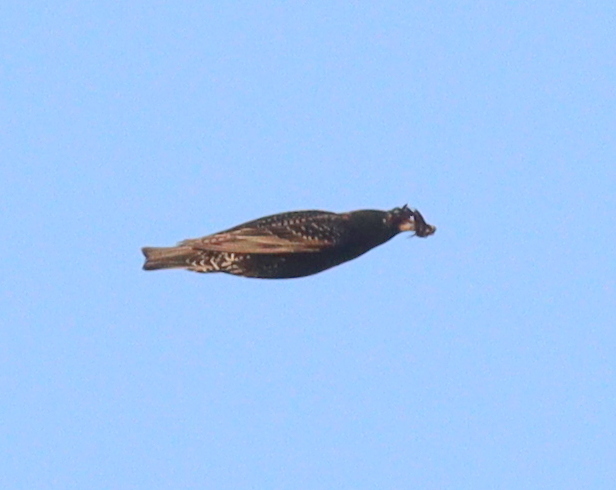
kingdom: Animalia
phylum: Chordata
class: Aves
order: Passeriformes
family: Sturnidae
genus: Sturnus
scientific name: Sturnus vulgaris
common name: Common starling
